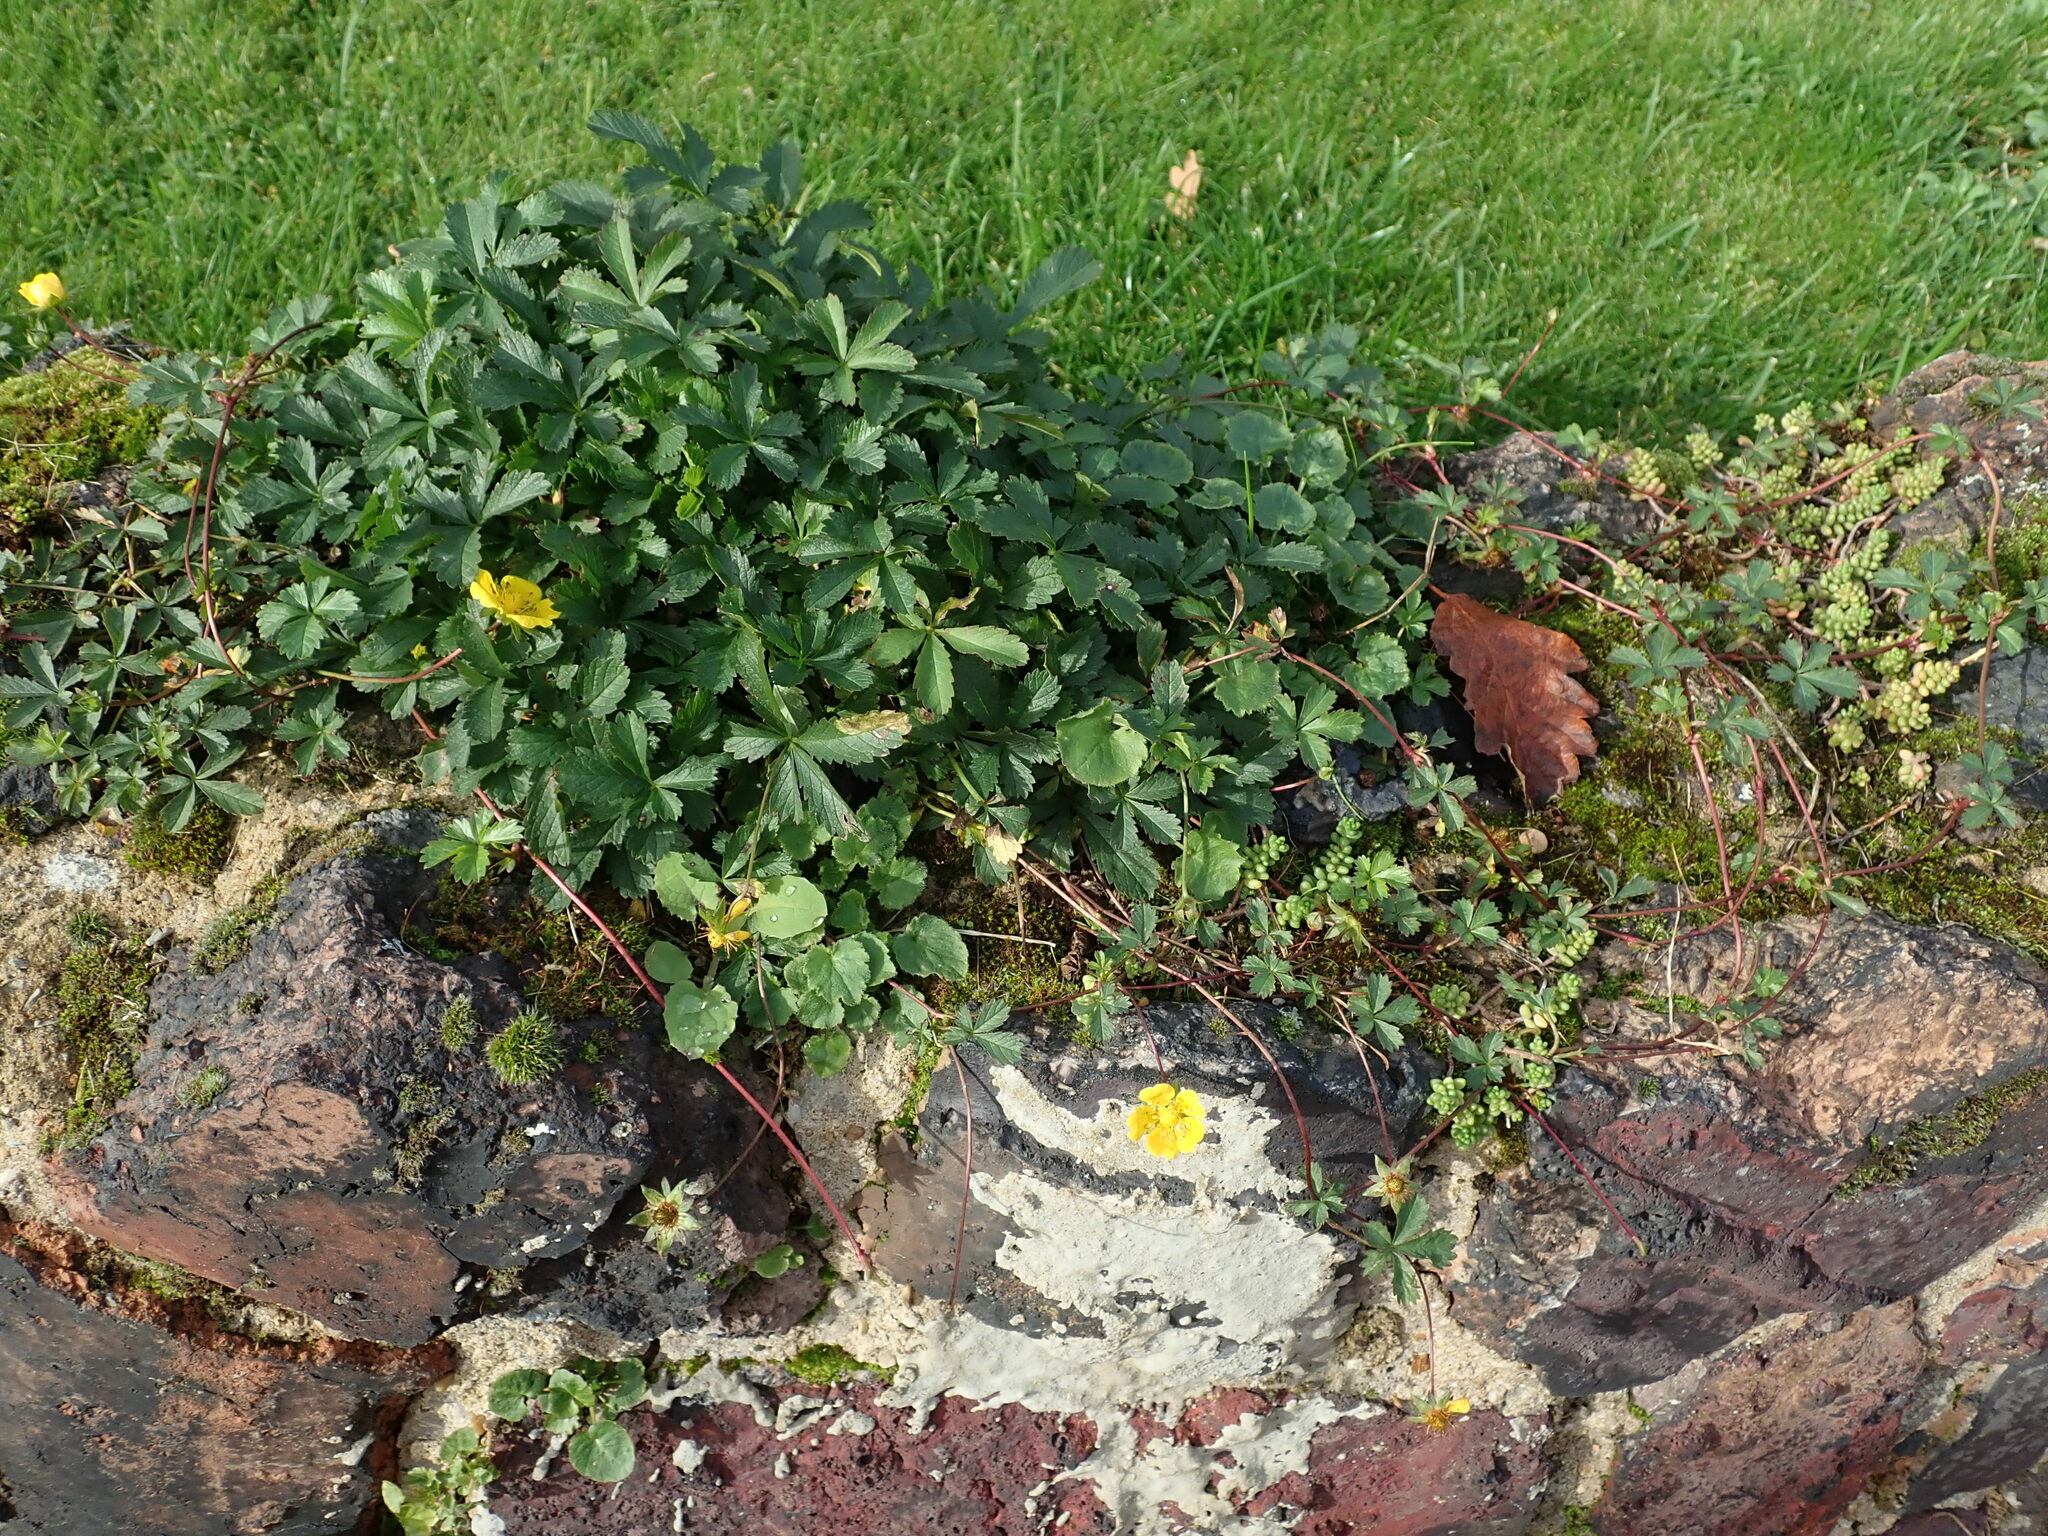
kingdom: Plantae
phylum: Tracheophyta
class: Magnoliopsida
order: Rosales
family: Rosaceae
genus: Potentilla
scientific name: Potentilla reptans
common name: Creeping cinquefoil
